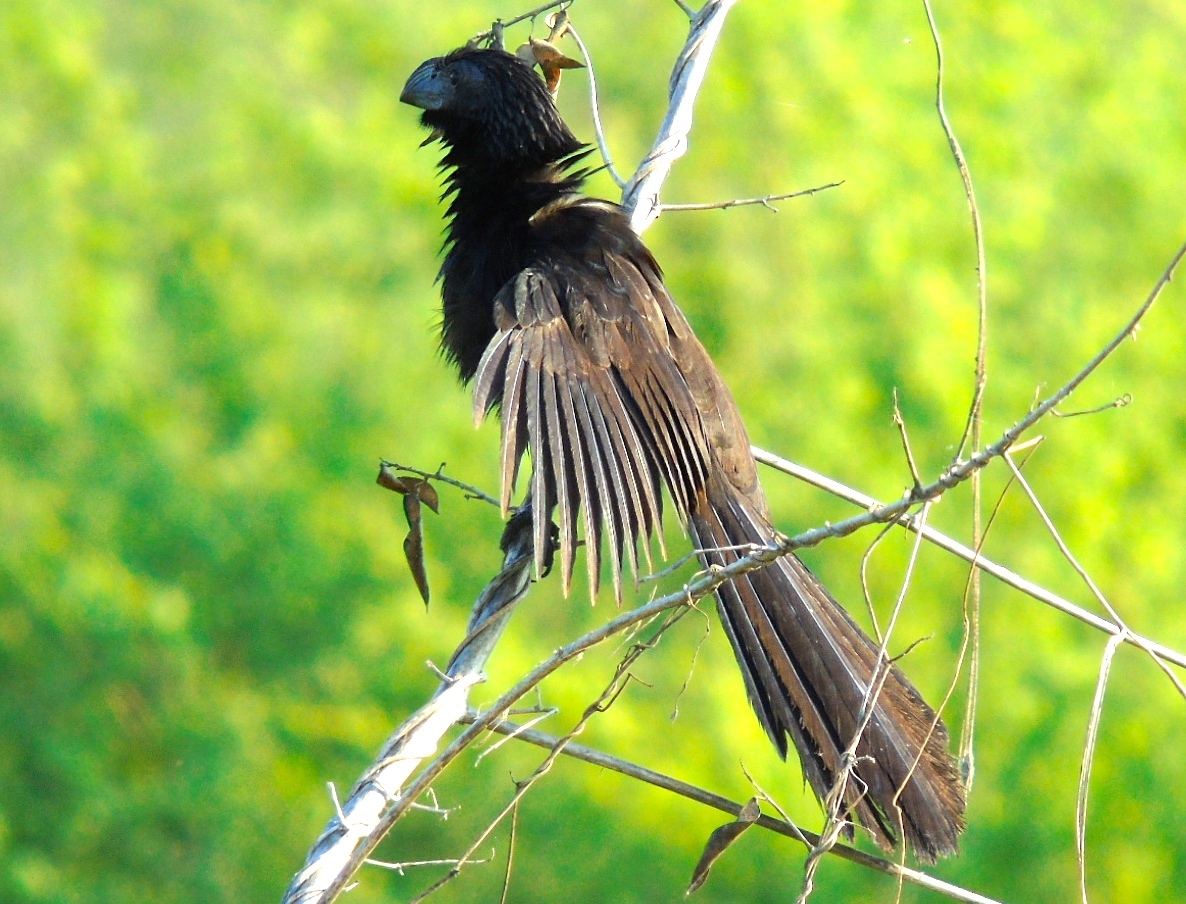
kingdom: Animalia
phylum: Chordata
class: Aves
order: Cuculiformes
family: Cuculidae
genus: Crotophaga
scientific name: Crotophaga sulcirostris
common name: Groove-billed ani
